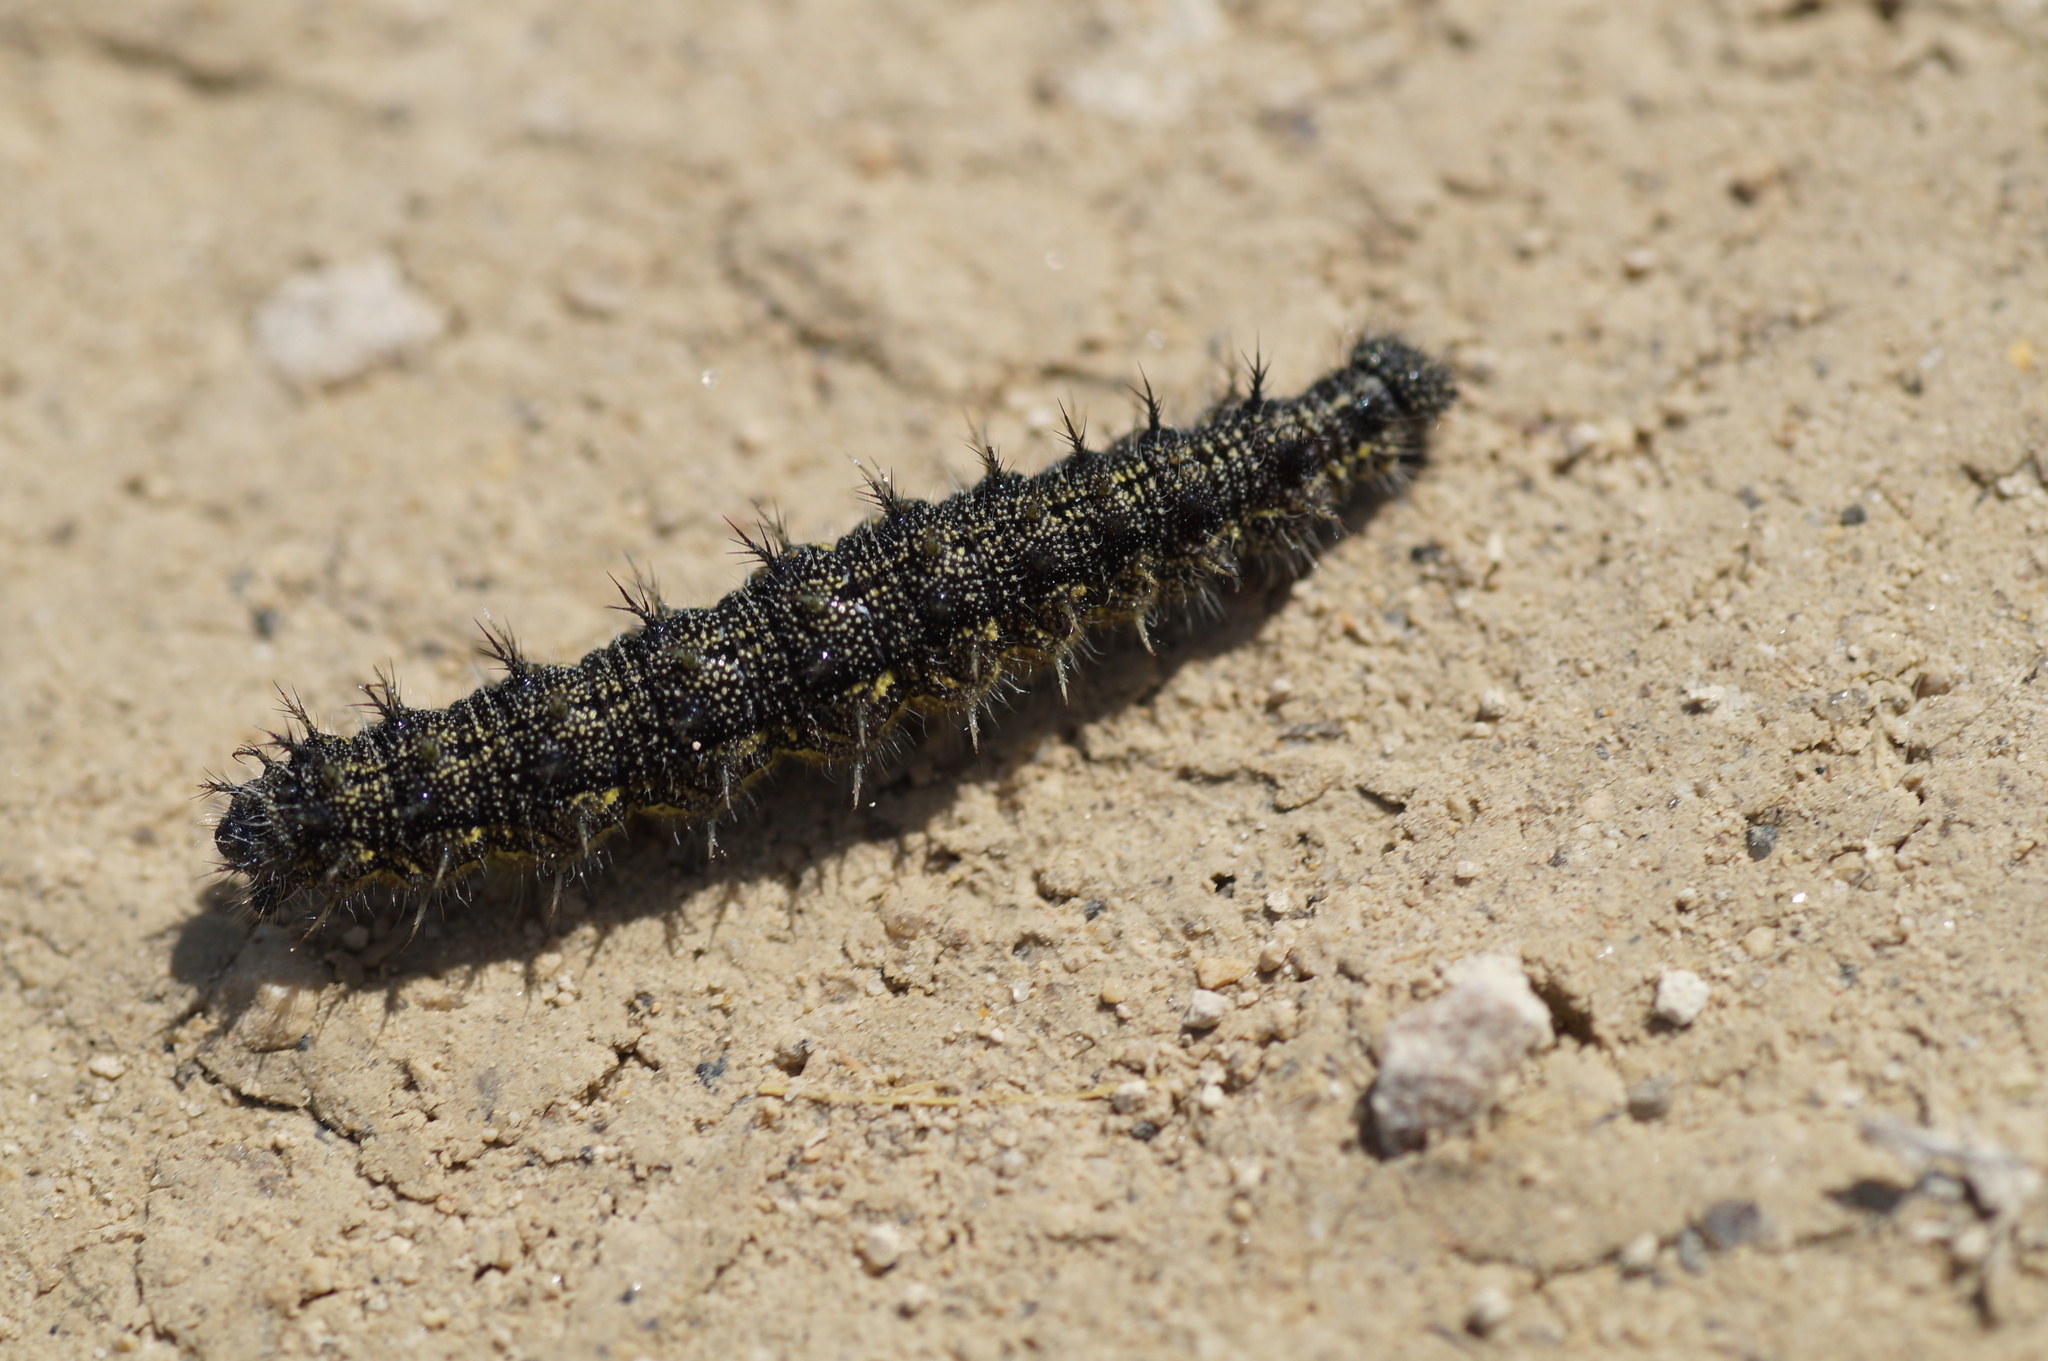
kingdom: Animalia
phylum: Arthropoda
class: Insecta
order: Lepidoptera
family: Nymphalidae
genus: Aglais
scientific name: Aglais urticae
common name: Small tortoiseshell
